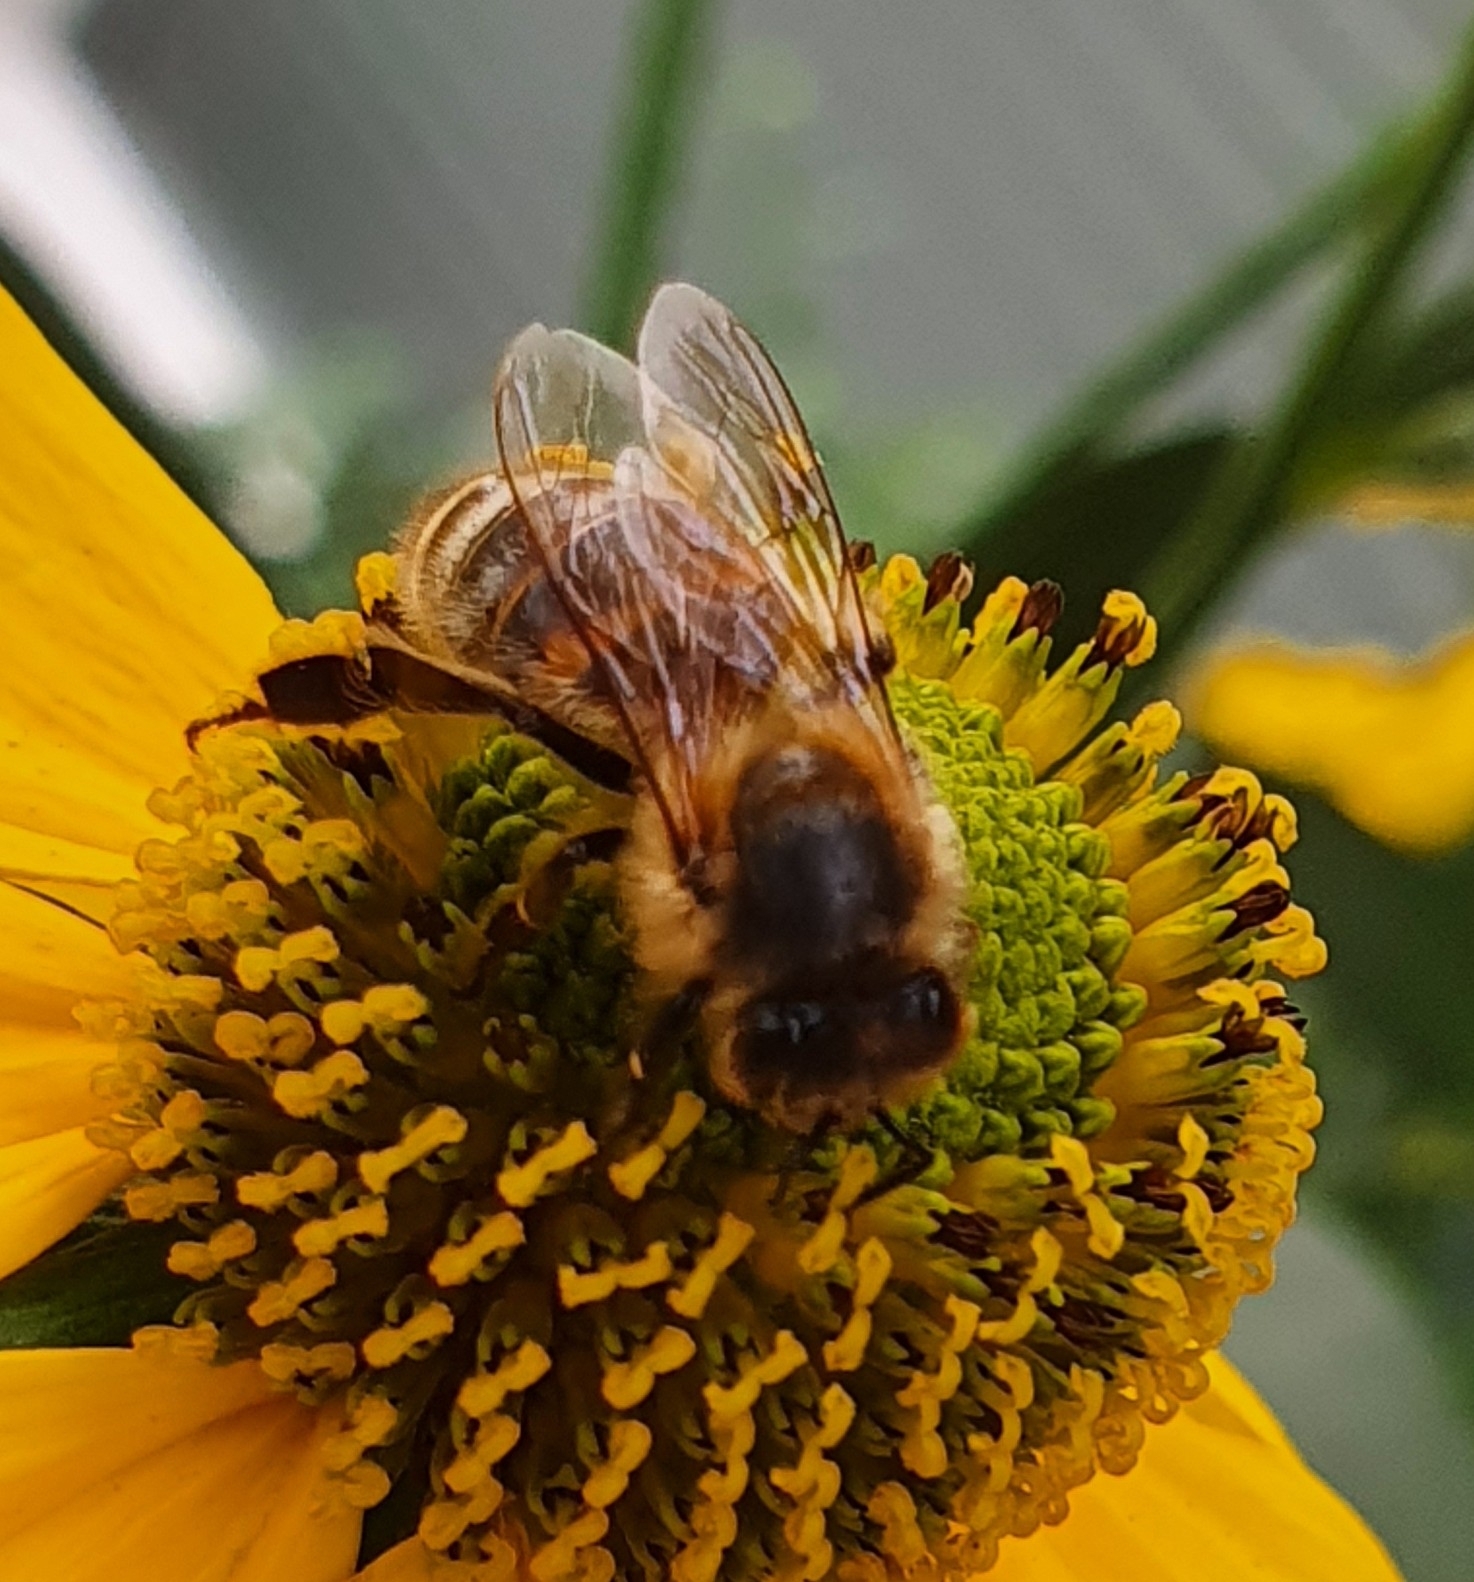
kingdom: Animalia
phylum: Arthropoda
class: Insecta
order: Hymenoptera
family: Apidae
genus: Apis
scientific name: Apis mellifera
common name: Honey bee
